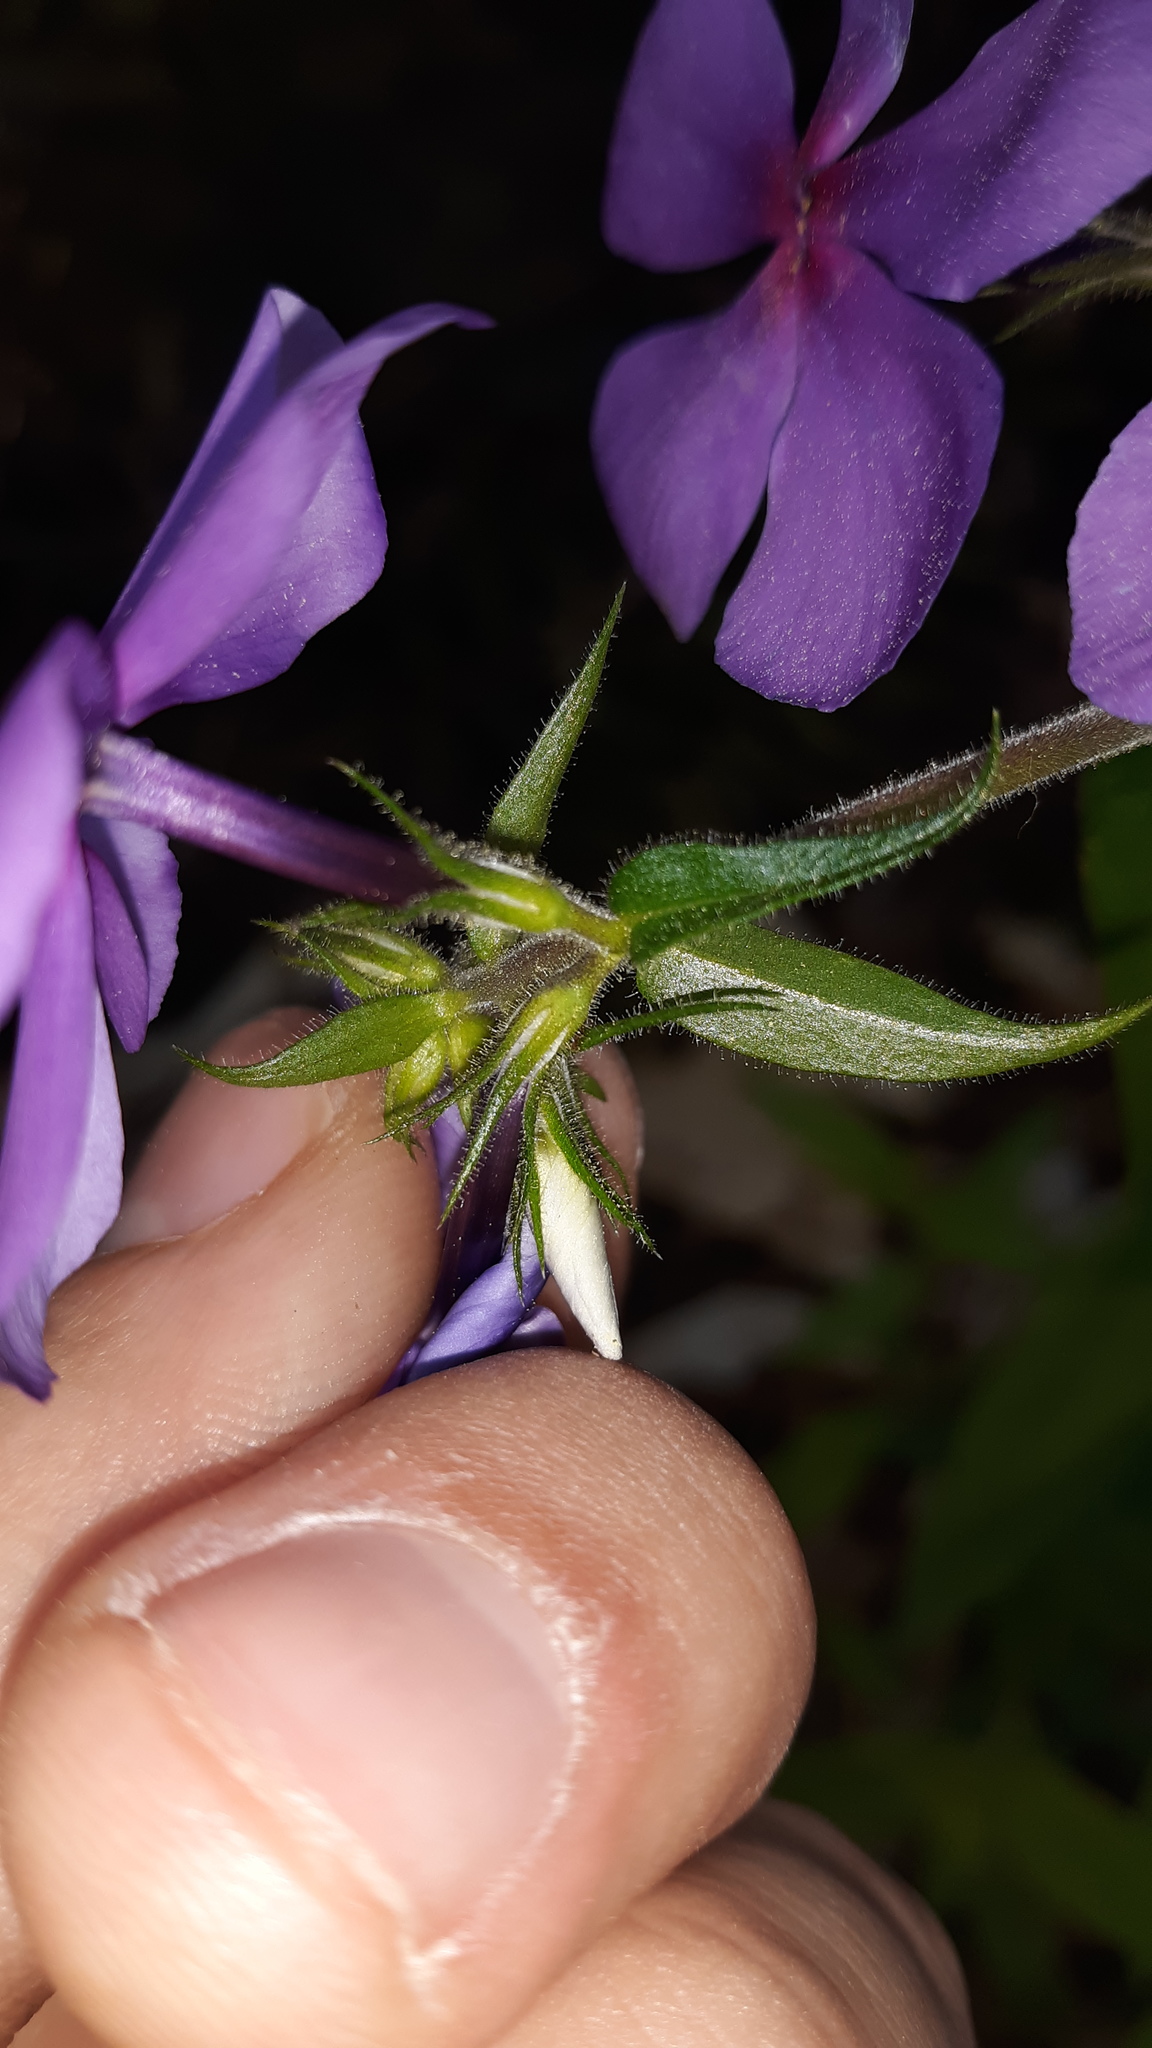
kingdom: Plantae
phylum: Tracheophyta
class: Magnoliopsida
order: Ericales
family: Polemoniaceae
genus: Phlox
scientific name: Phlox divaricata
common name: Blue phlox
